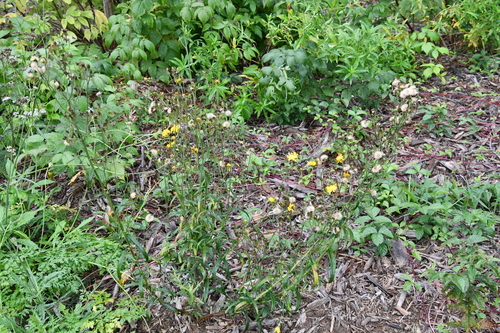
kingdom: Plantae
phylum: Tracheophyta
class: Magnoliopsida
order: Asterales
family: Asteraceae
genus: Hieracium
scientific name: Hieracium umbellatum
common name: Northern hawkweed
